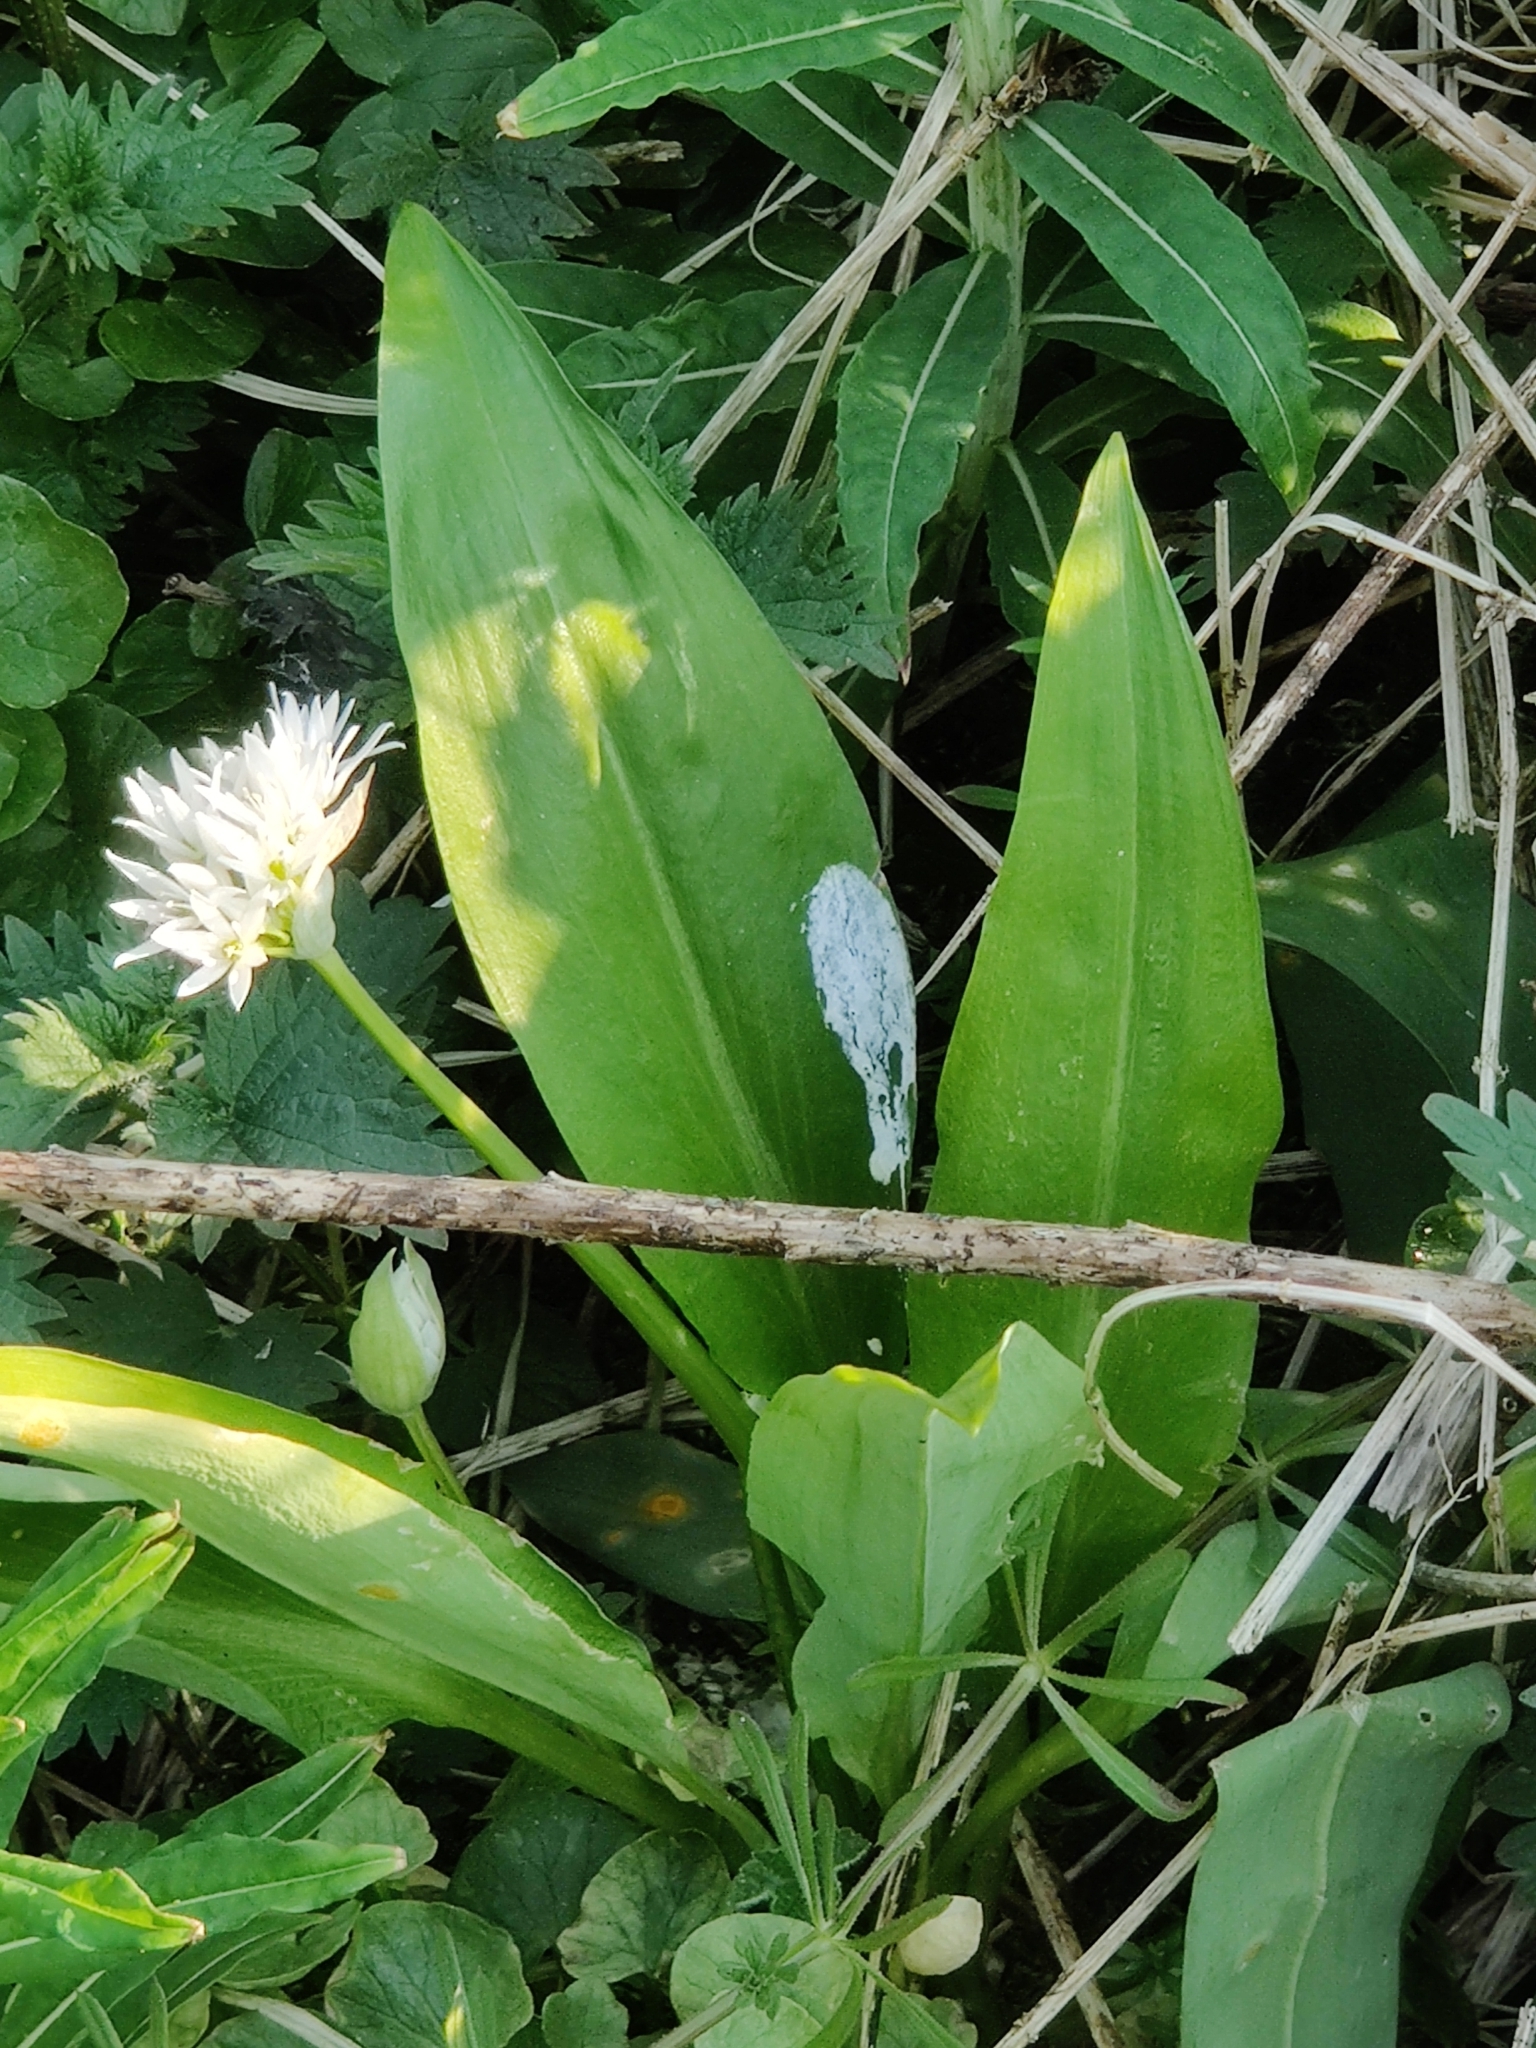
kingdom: Plantae
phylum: Tracheophyta
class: Liliopsida
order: Asparagales
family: Amaryllidaceae
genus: Allium
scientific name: Allium ursinum
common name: Ramsons
